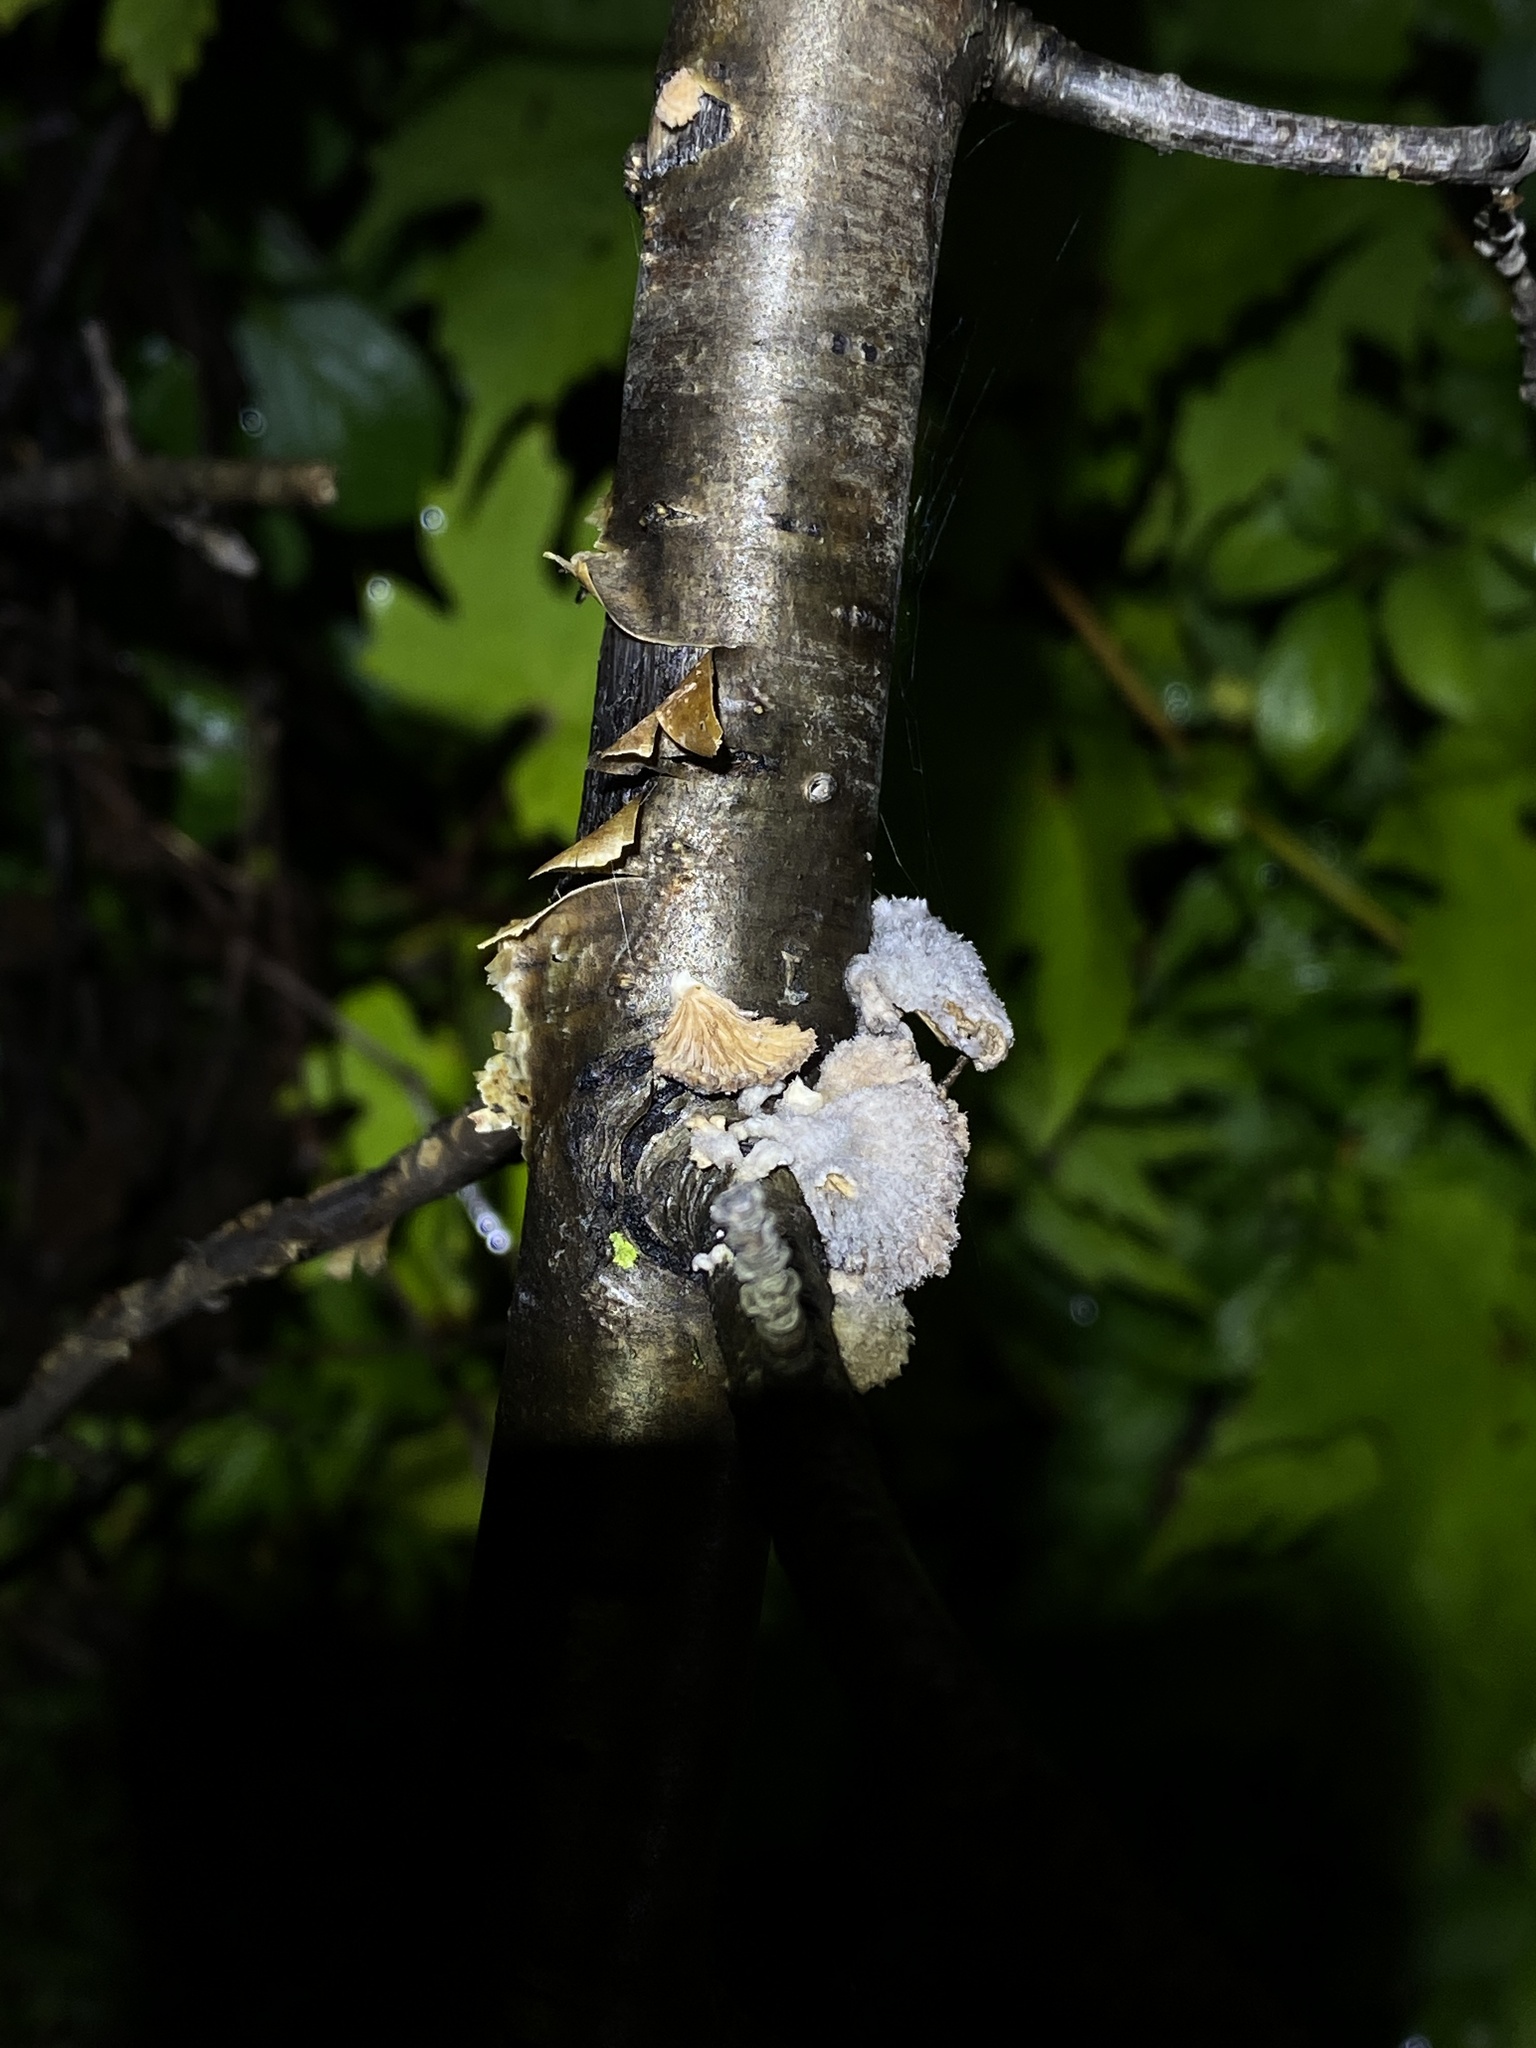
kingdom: Fungi
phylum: Basidiomycota
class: Agaricomycetes
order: Agaricales
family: Schizophyllaceae
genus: Schizophyllum
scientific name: Schizophyllum commune
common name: Common porecrust
